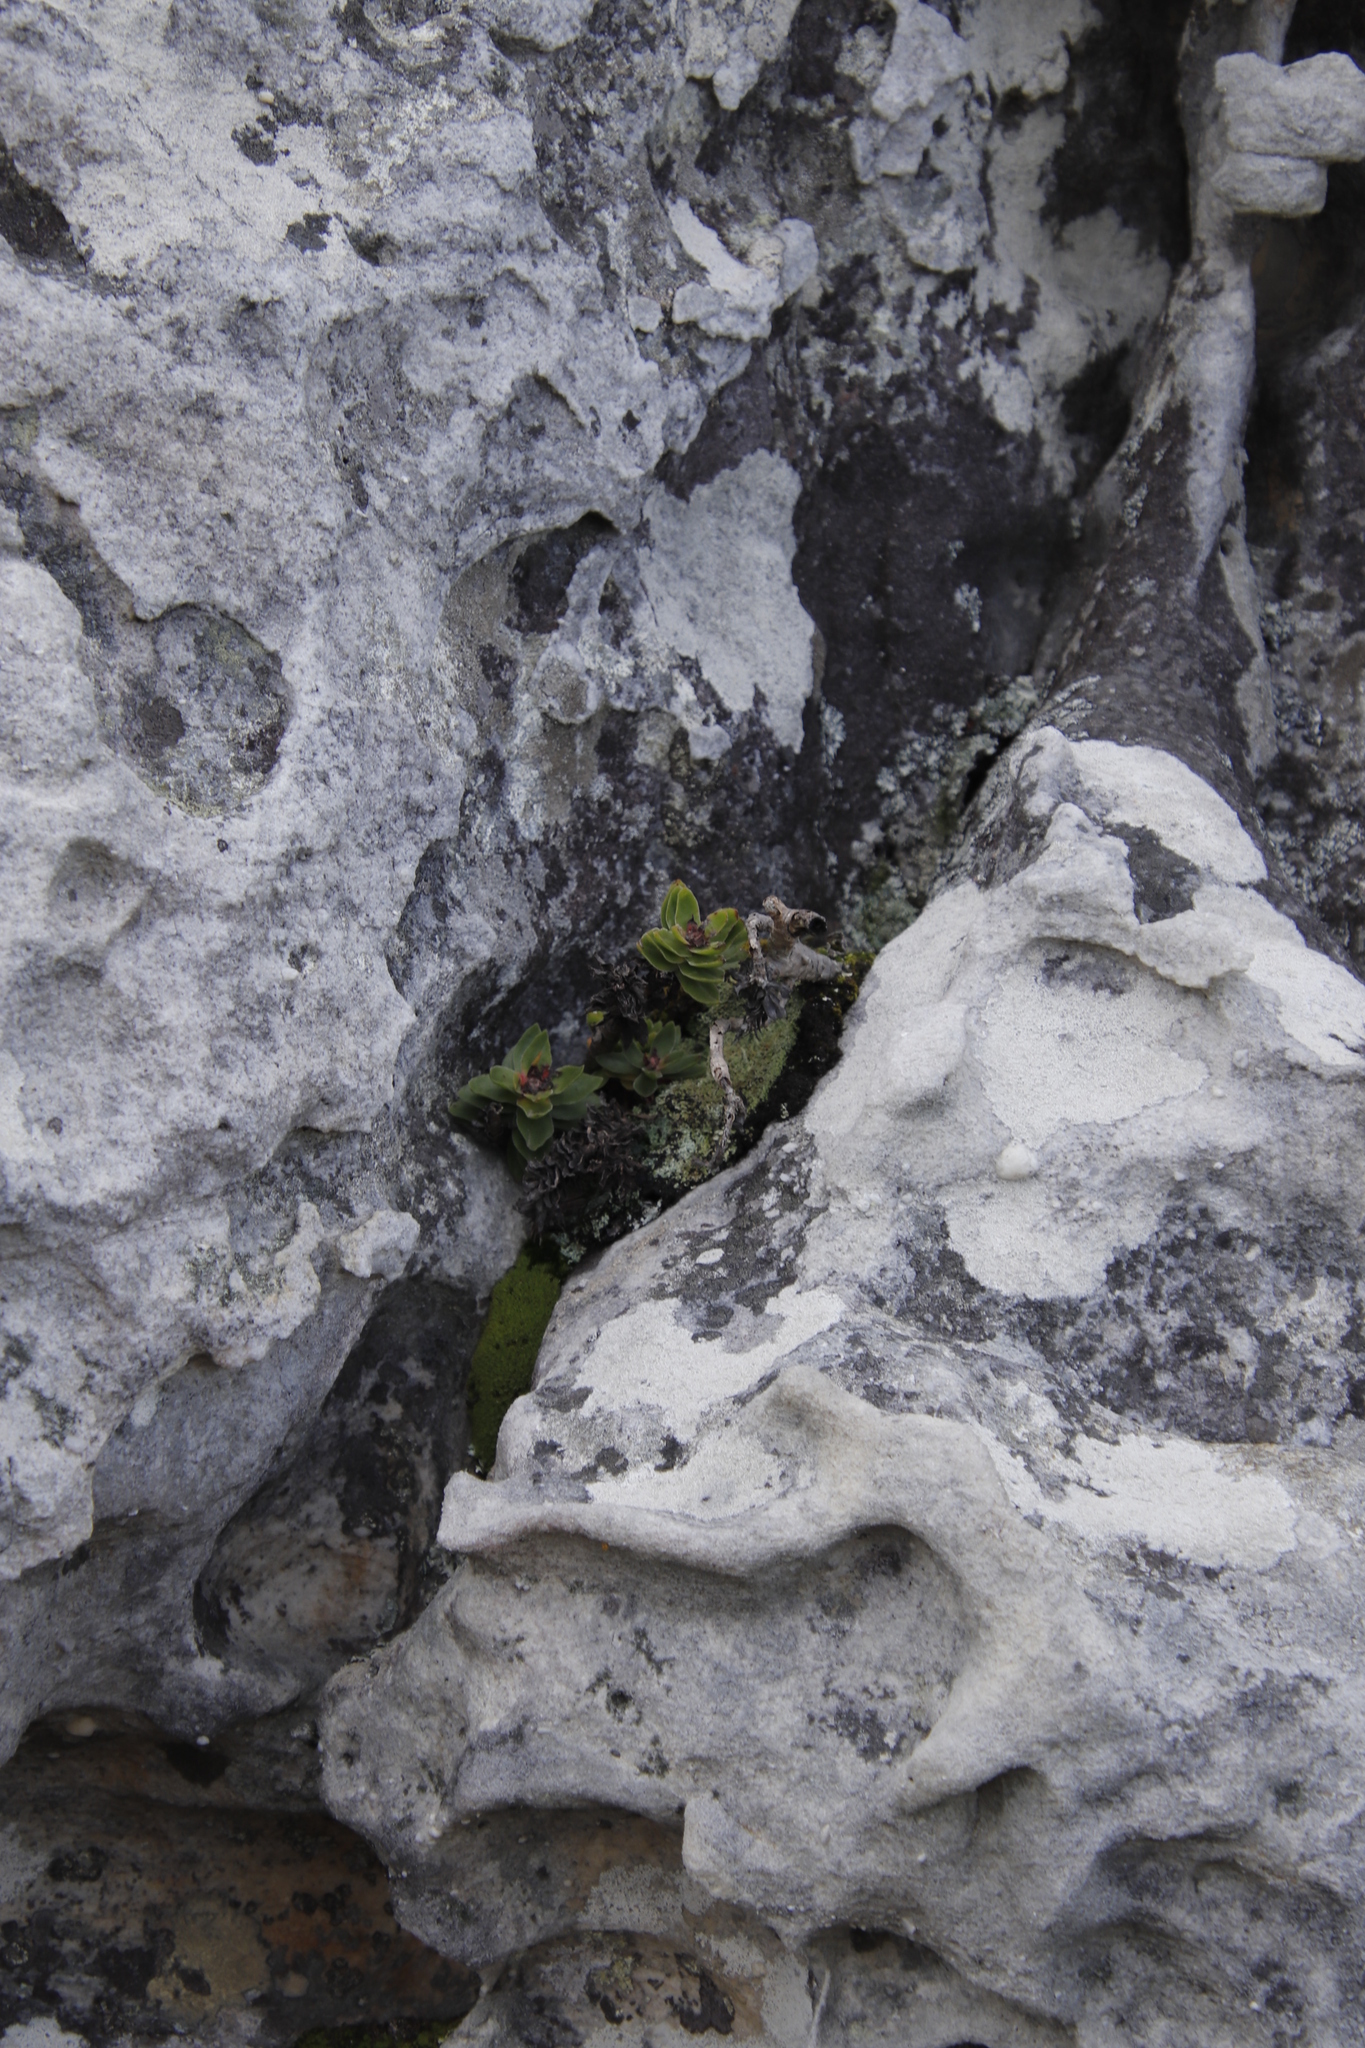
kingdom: Plantae
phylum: Tracheophyta
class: Magnoliopsida
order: Saxifragales
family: Crassulaceae
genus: Crassula
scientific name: Crassula coccinea
